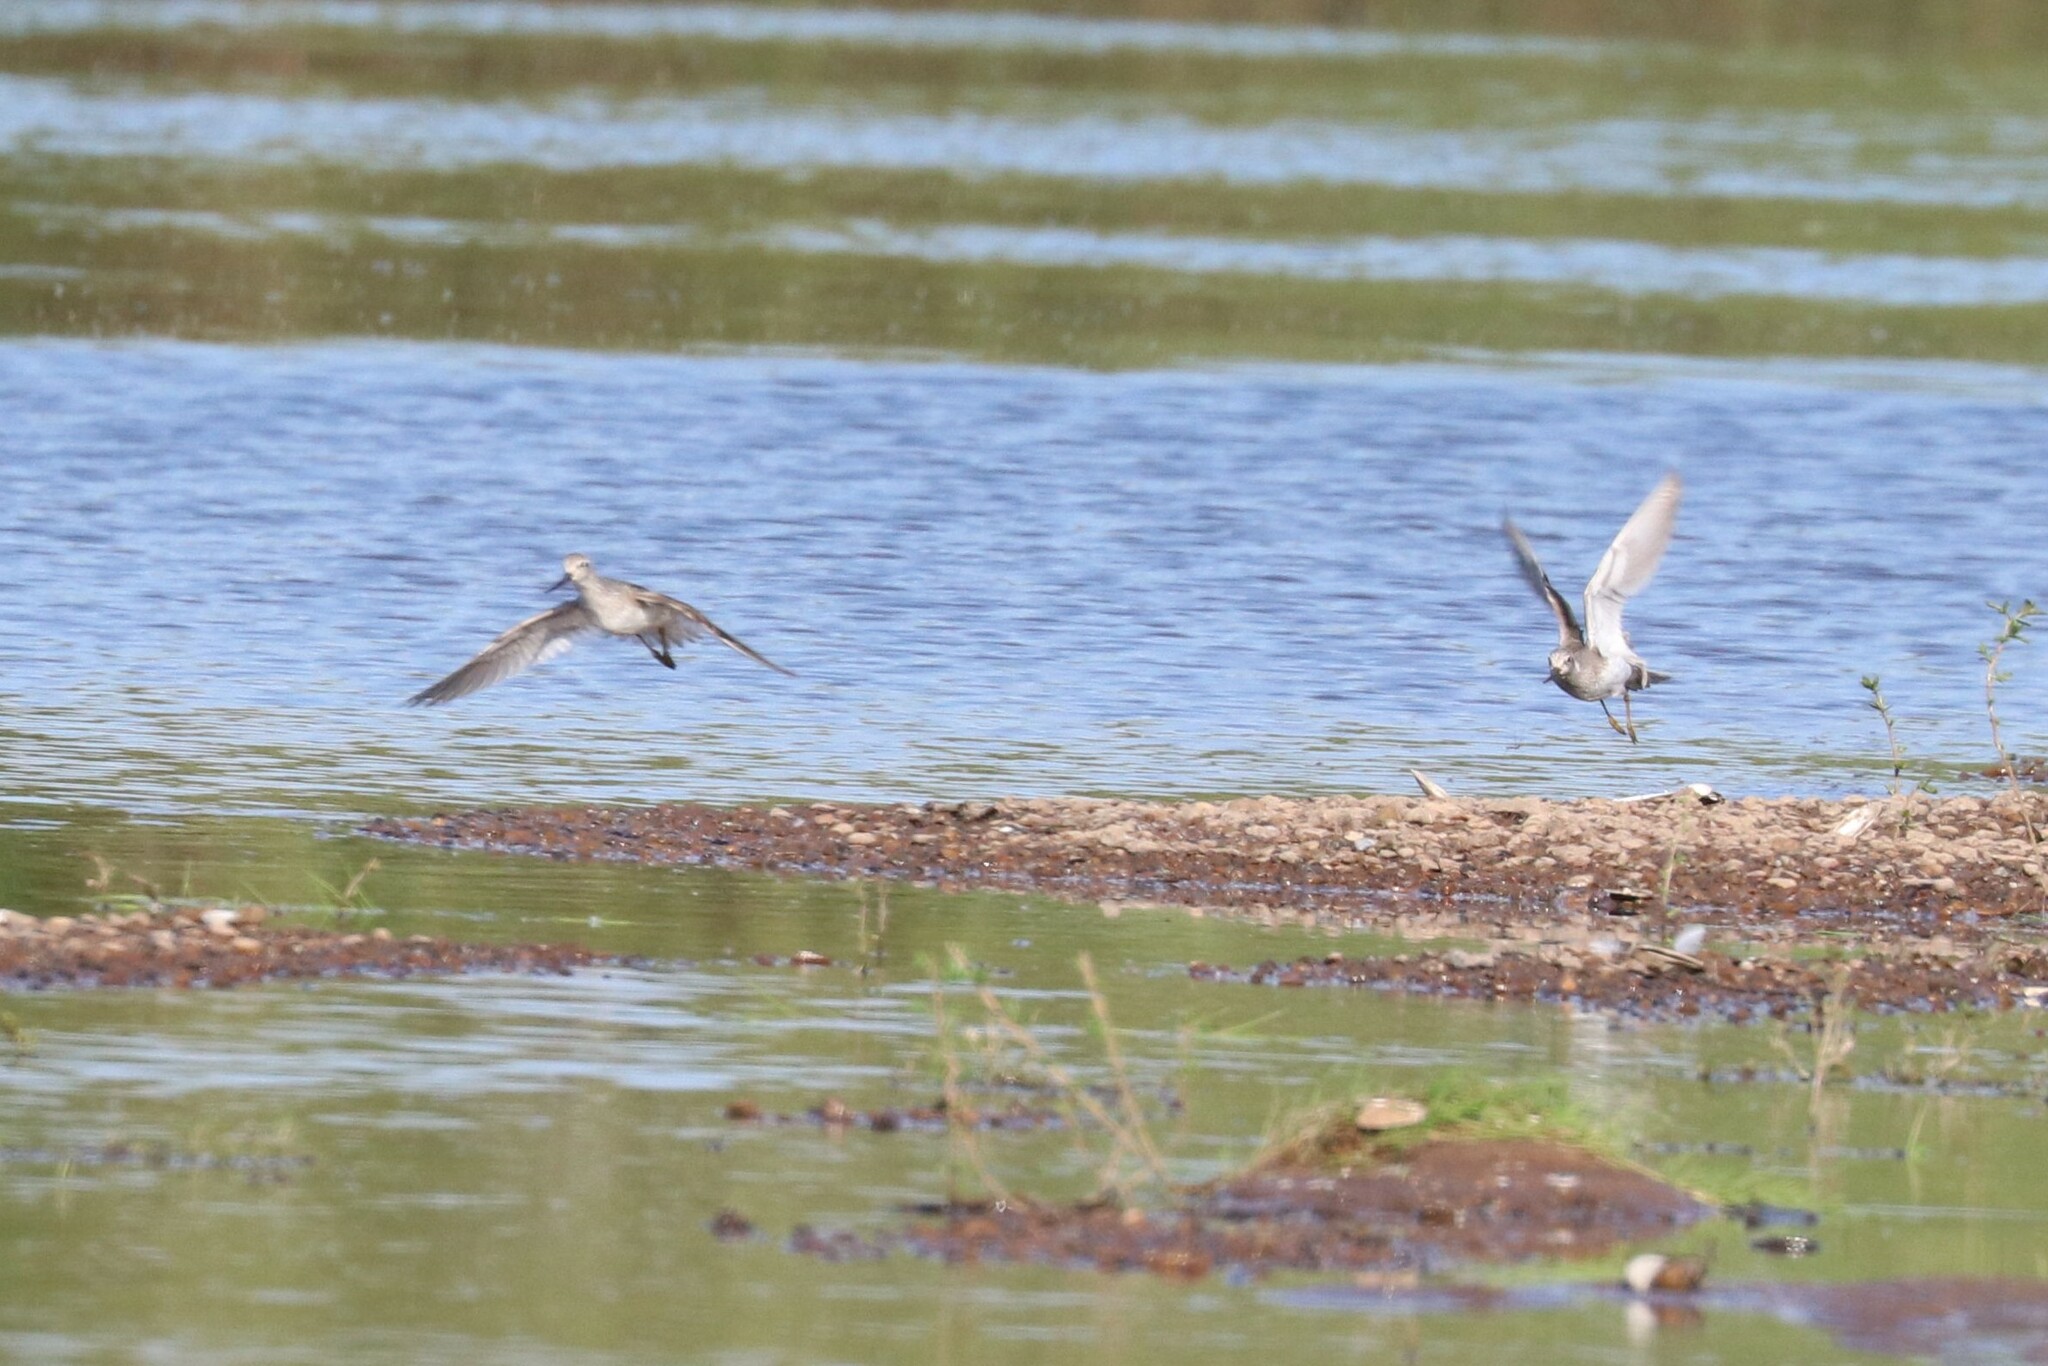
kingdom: Animalia
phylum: Chordata
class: Aves
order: Charadriiformes
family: Scolopacidae
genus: Xenus
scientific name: Xenus cinereus
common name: Terek sandpiper
